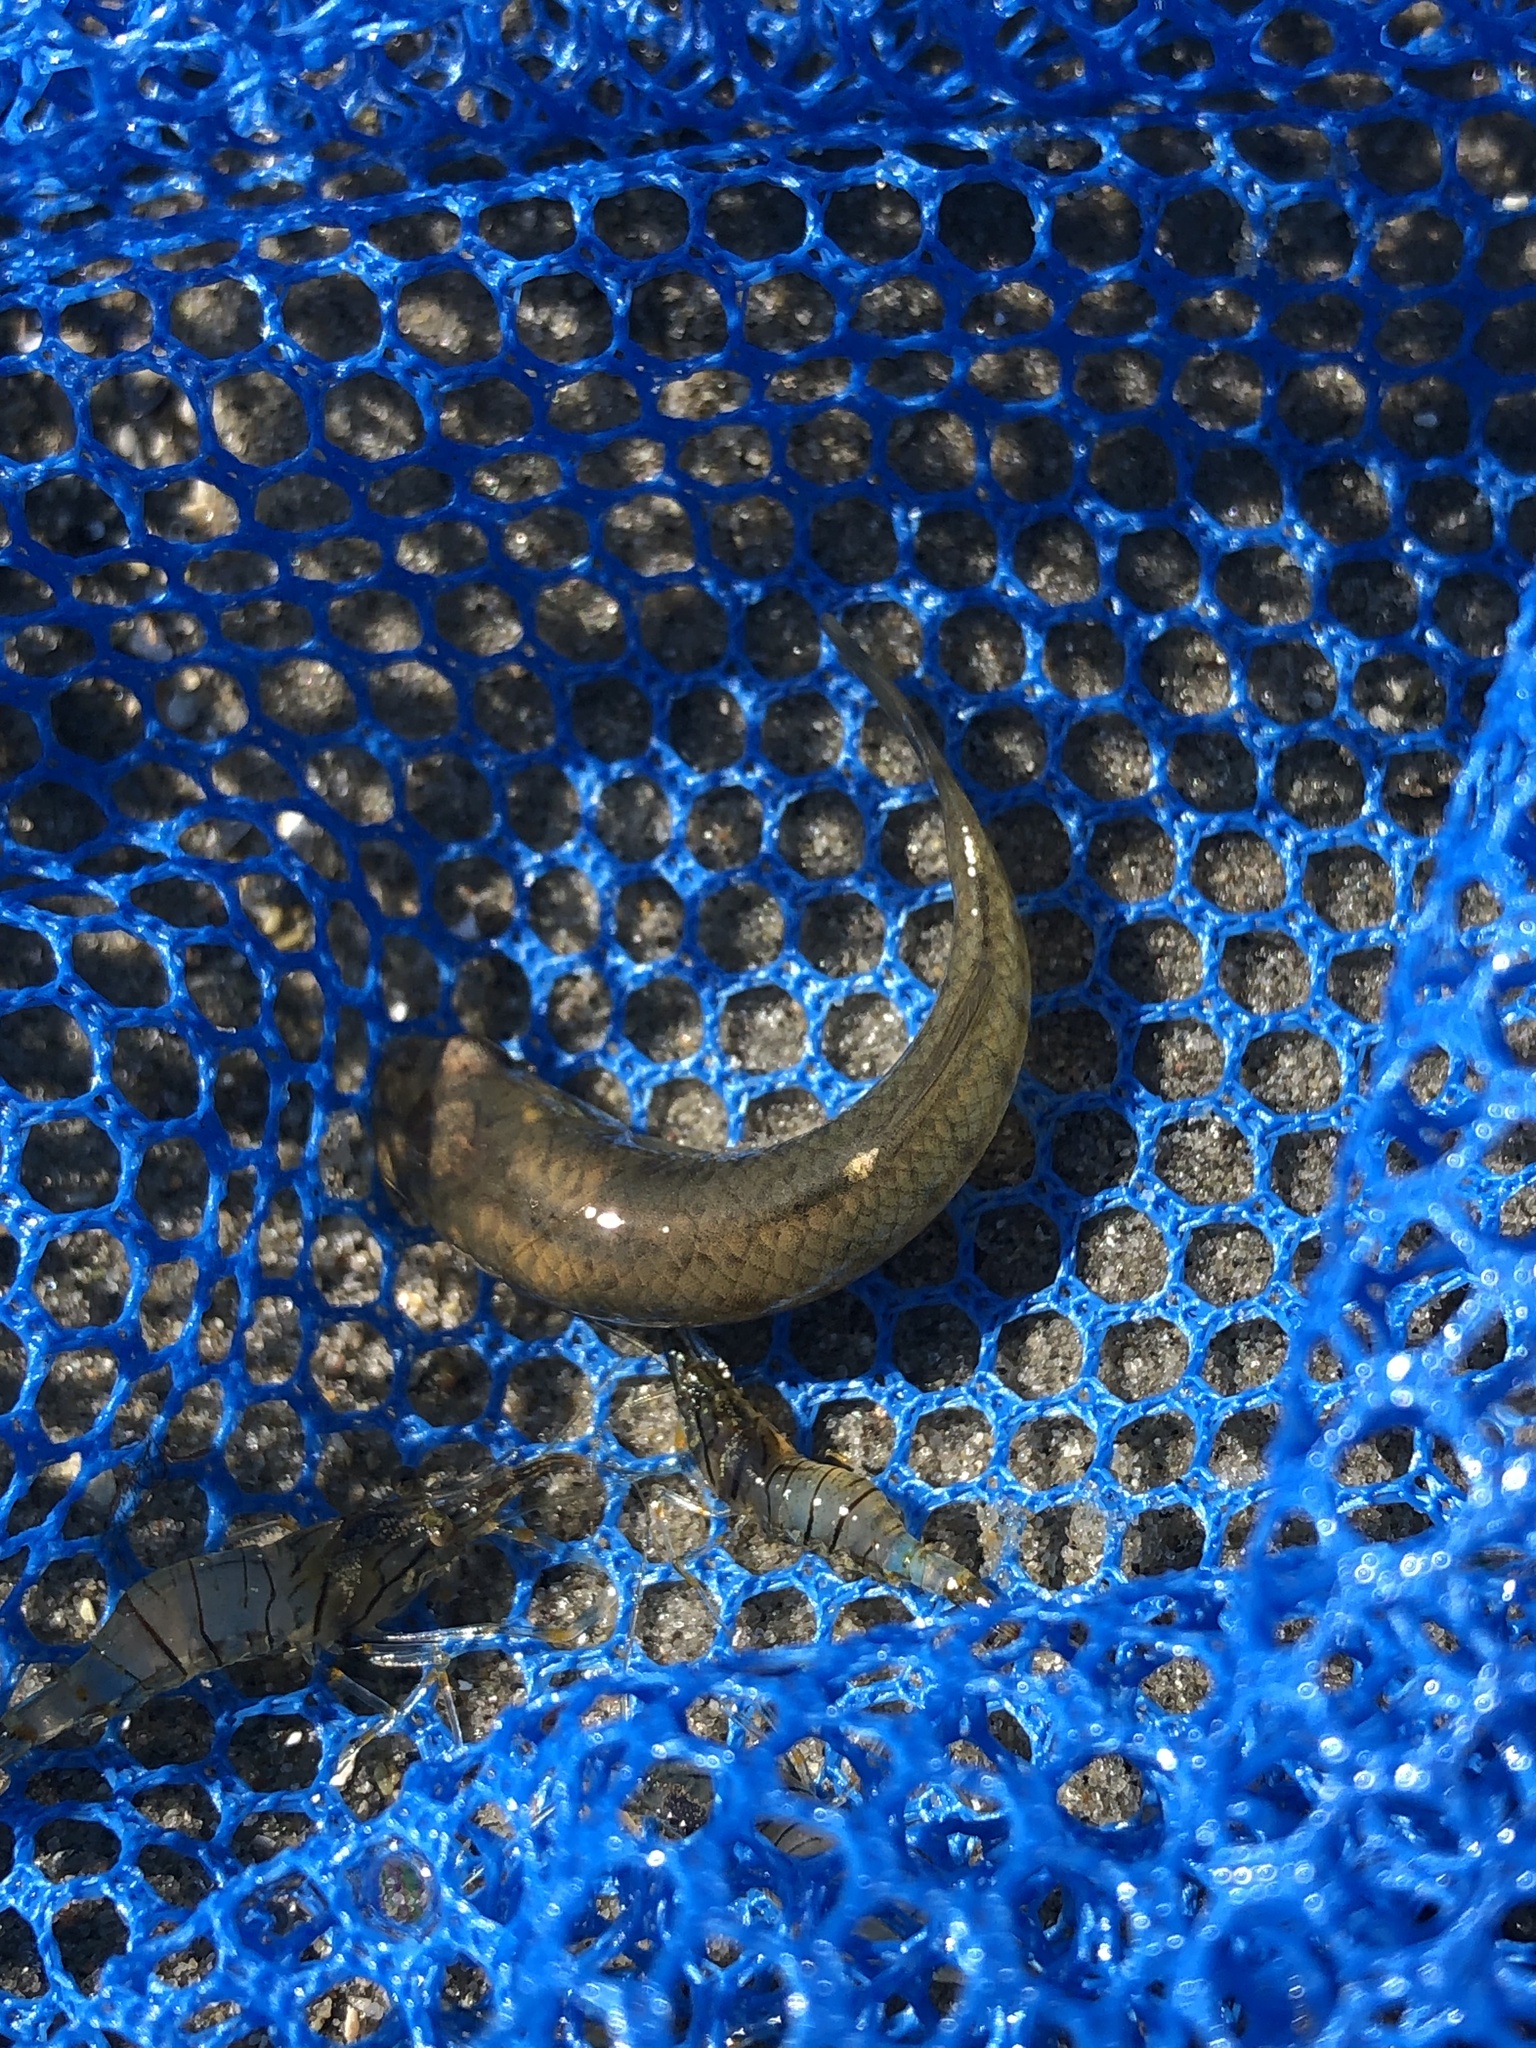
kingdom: Animalia
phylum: Chordata
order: Cyprinodontiformes
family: Fundulidae
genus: Fundulus
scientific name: Fundulus heteroclitus
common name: Mummichog
